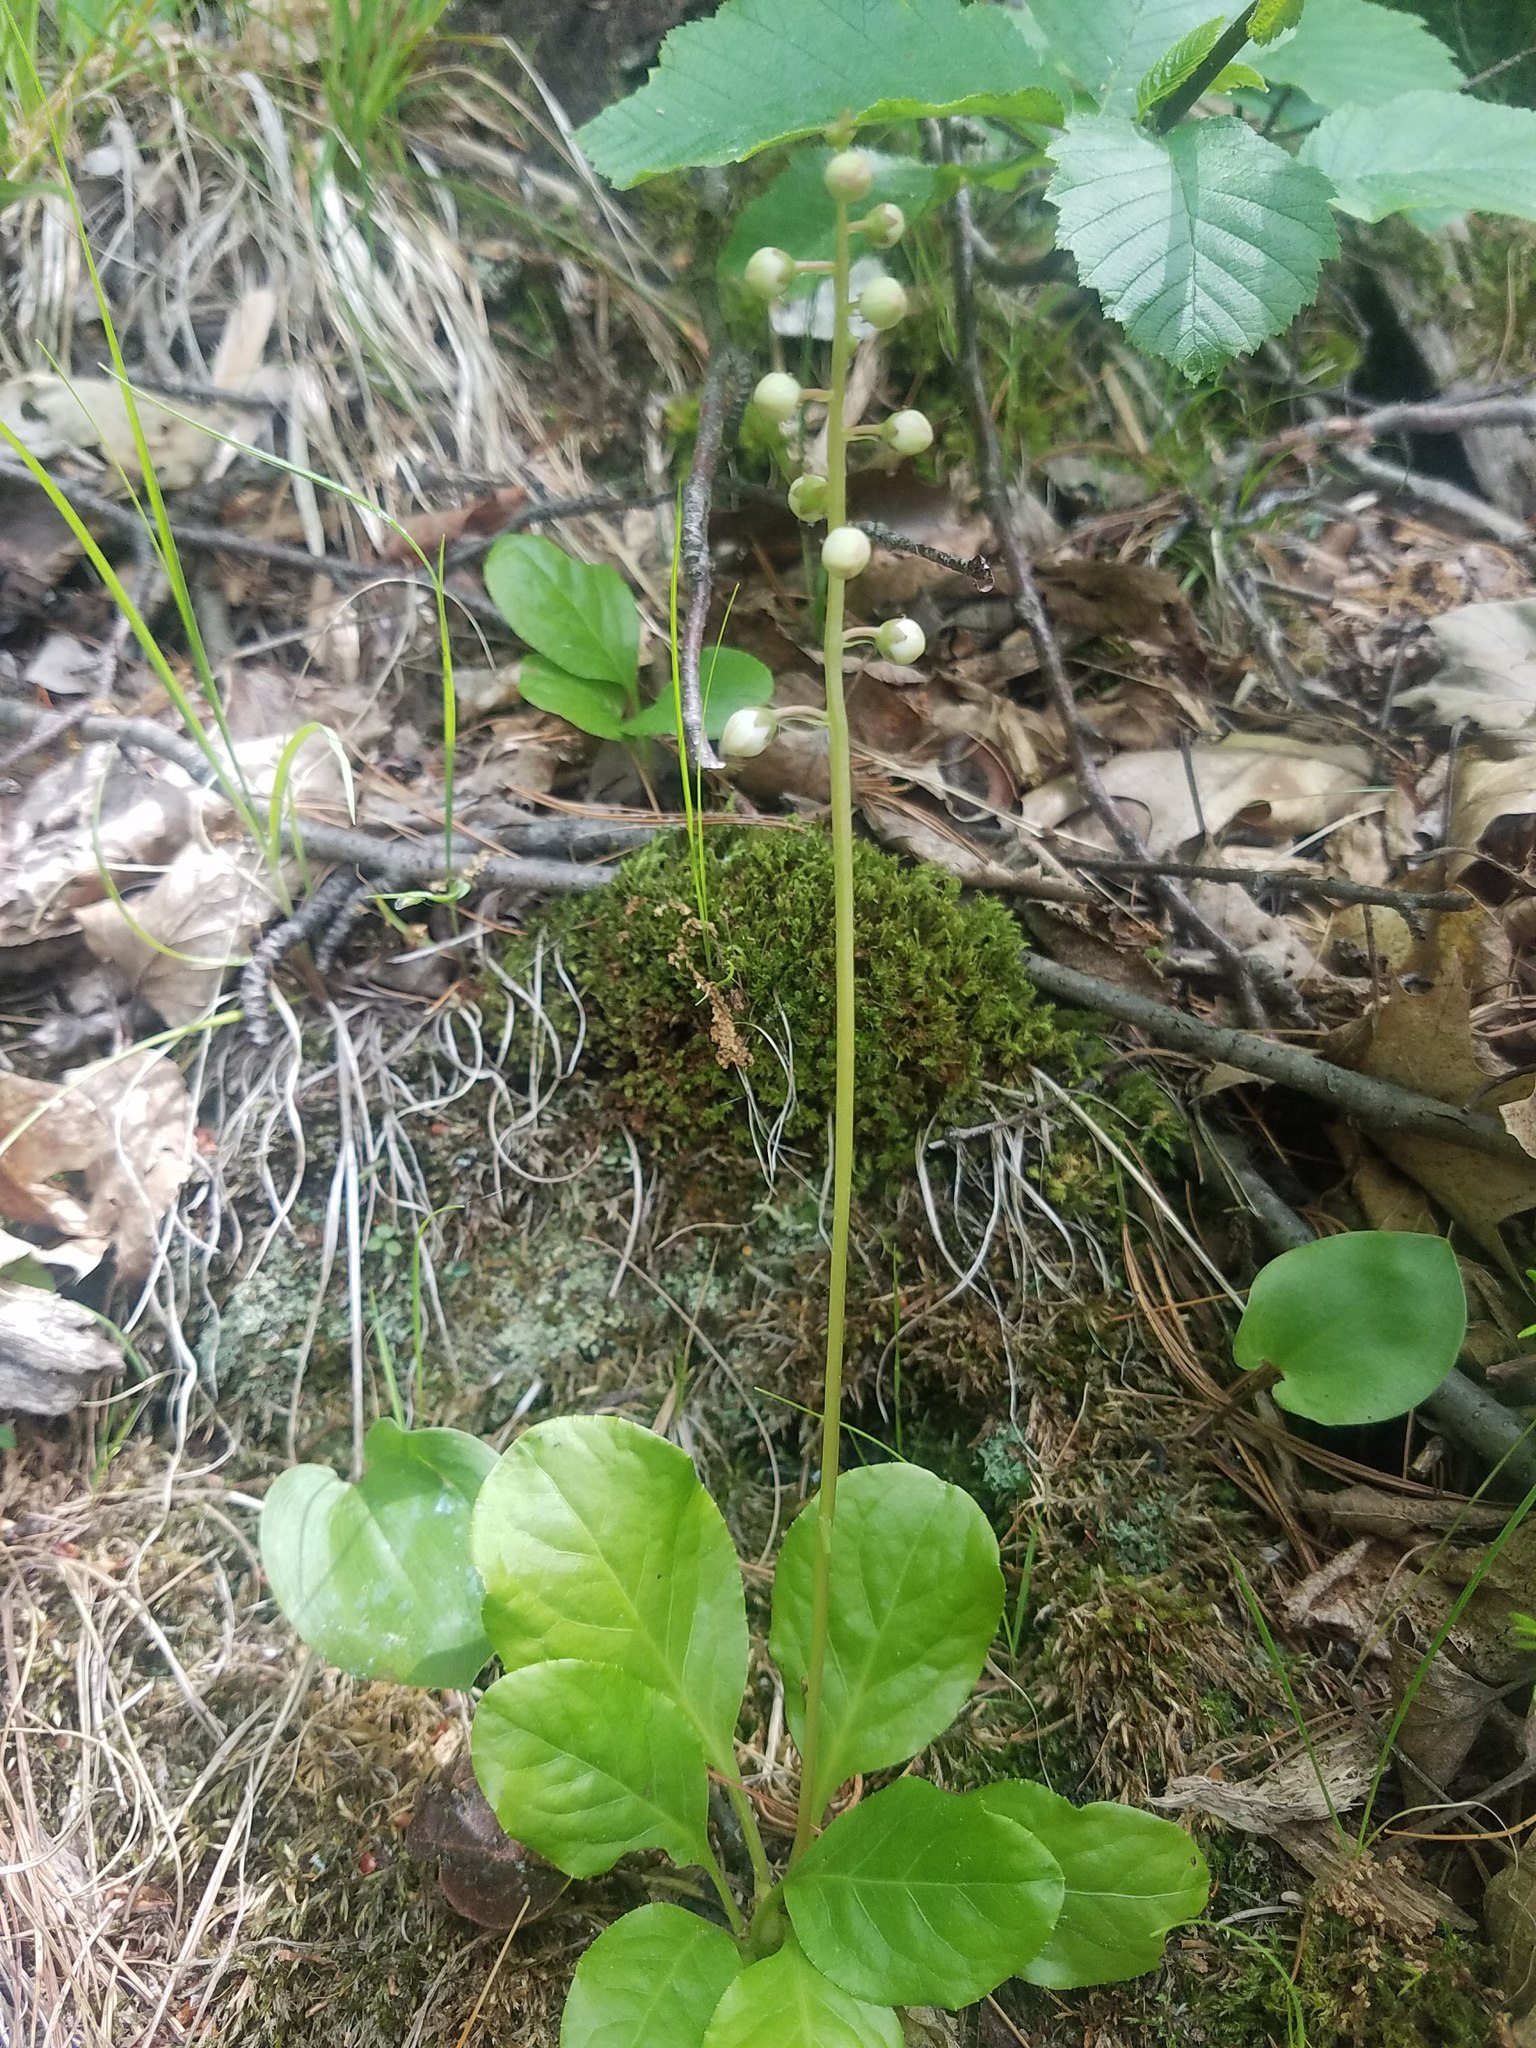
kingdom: Plantae
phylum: Tracheophyta
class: Magnoliopsida
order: Ericales
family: Ericaceae
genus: Pyrola
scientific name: Pyrola elliptica
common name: Shinleaf
